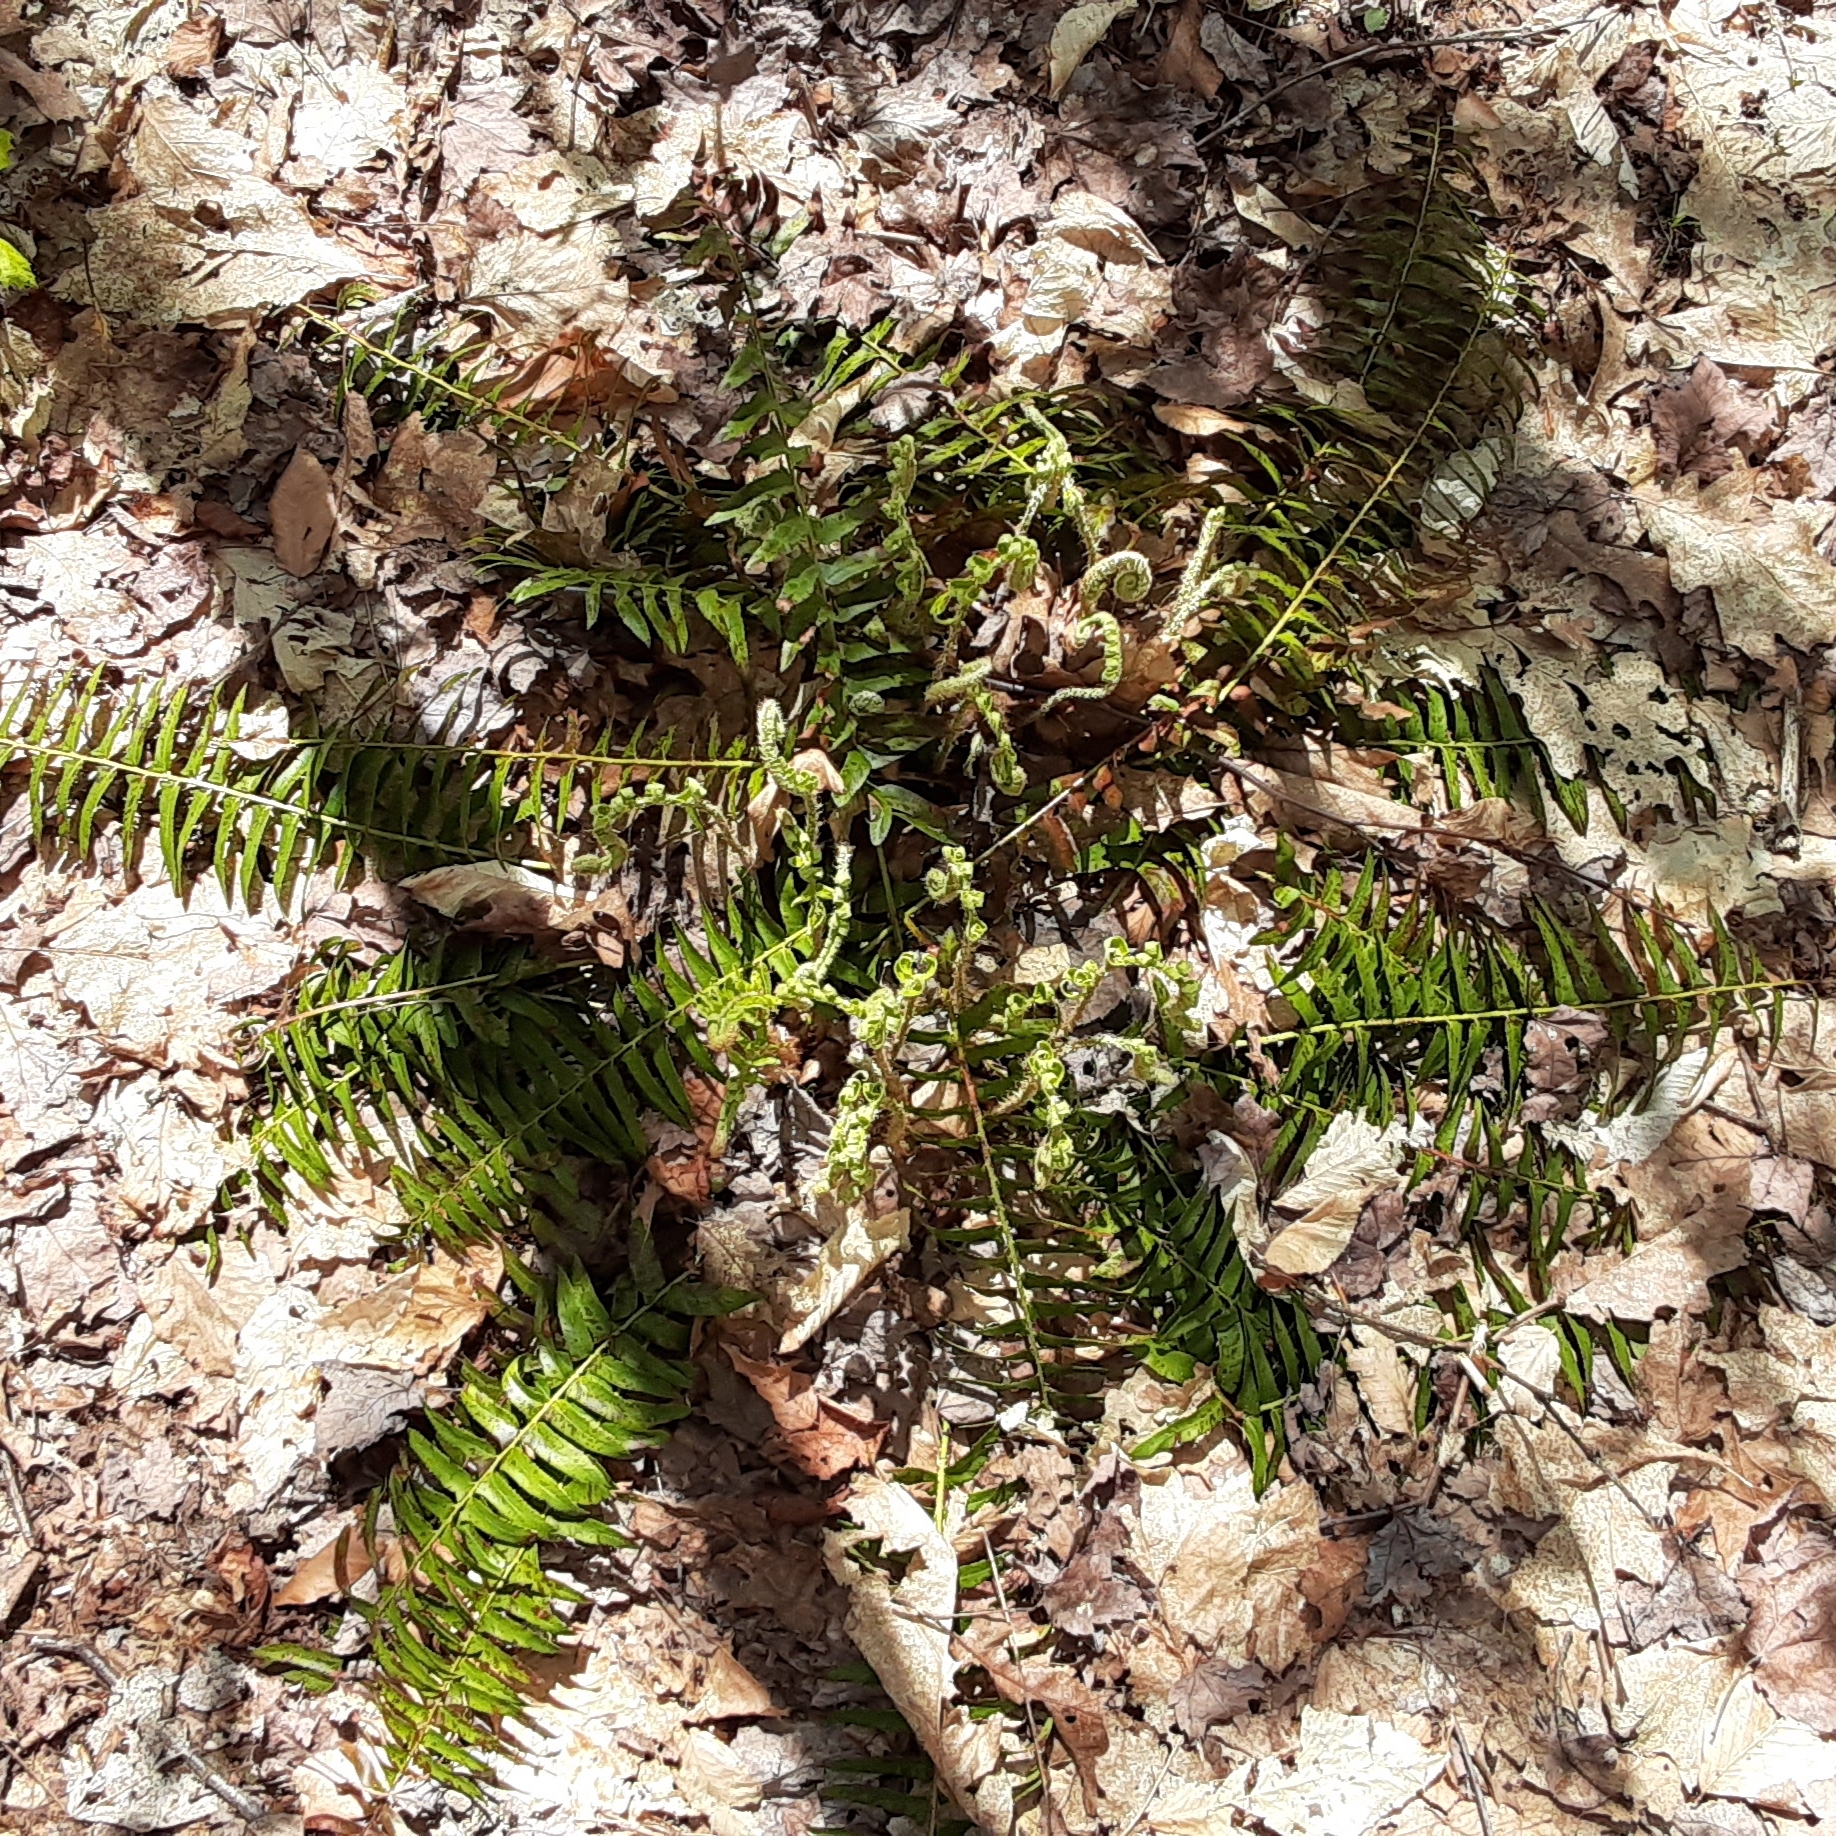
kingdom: Plantae
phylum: Tracheophyta
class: Polypodiopsida
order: Polypodiales
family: Dryopteridaceae
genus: Polystichum
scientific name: Polystichum acrostichoides
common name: Christmas fern
